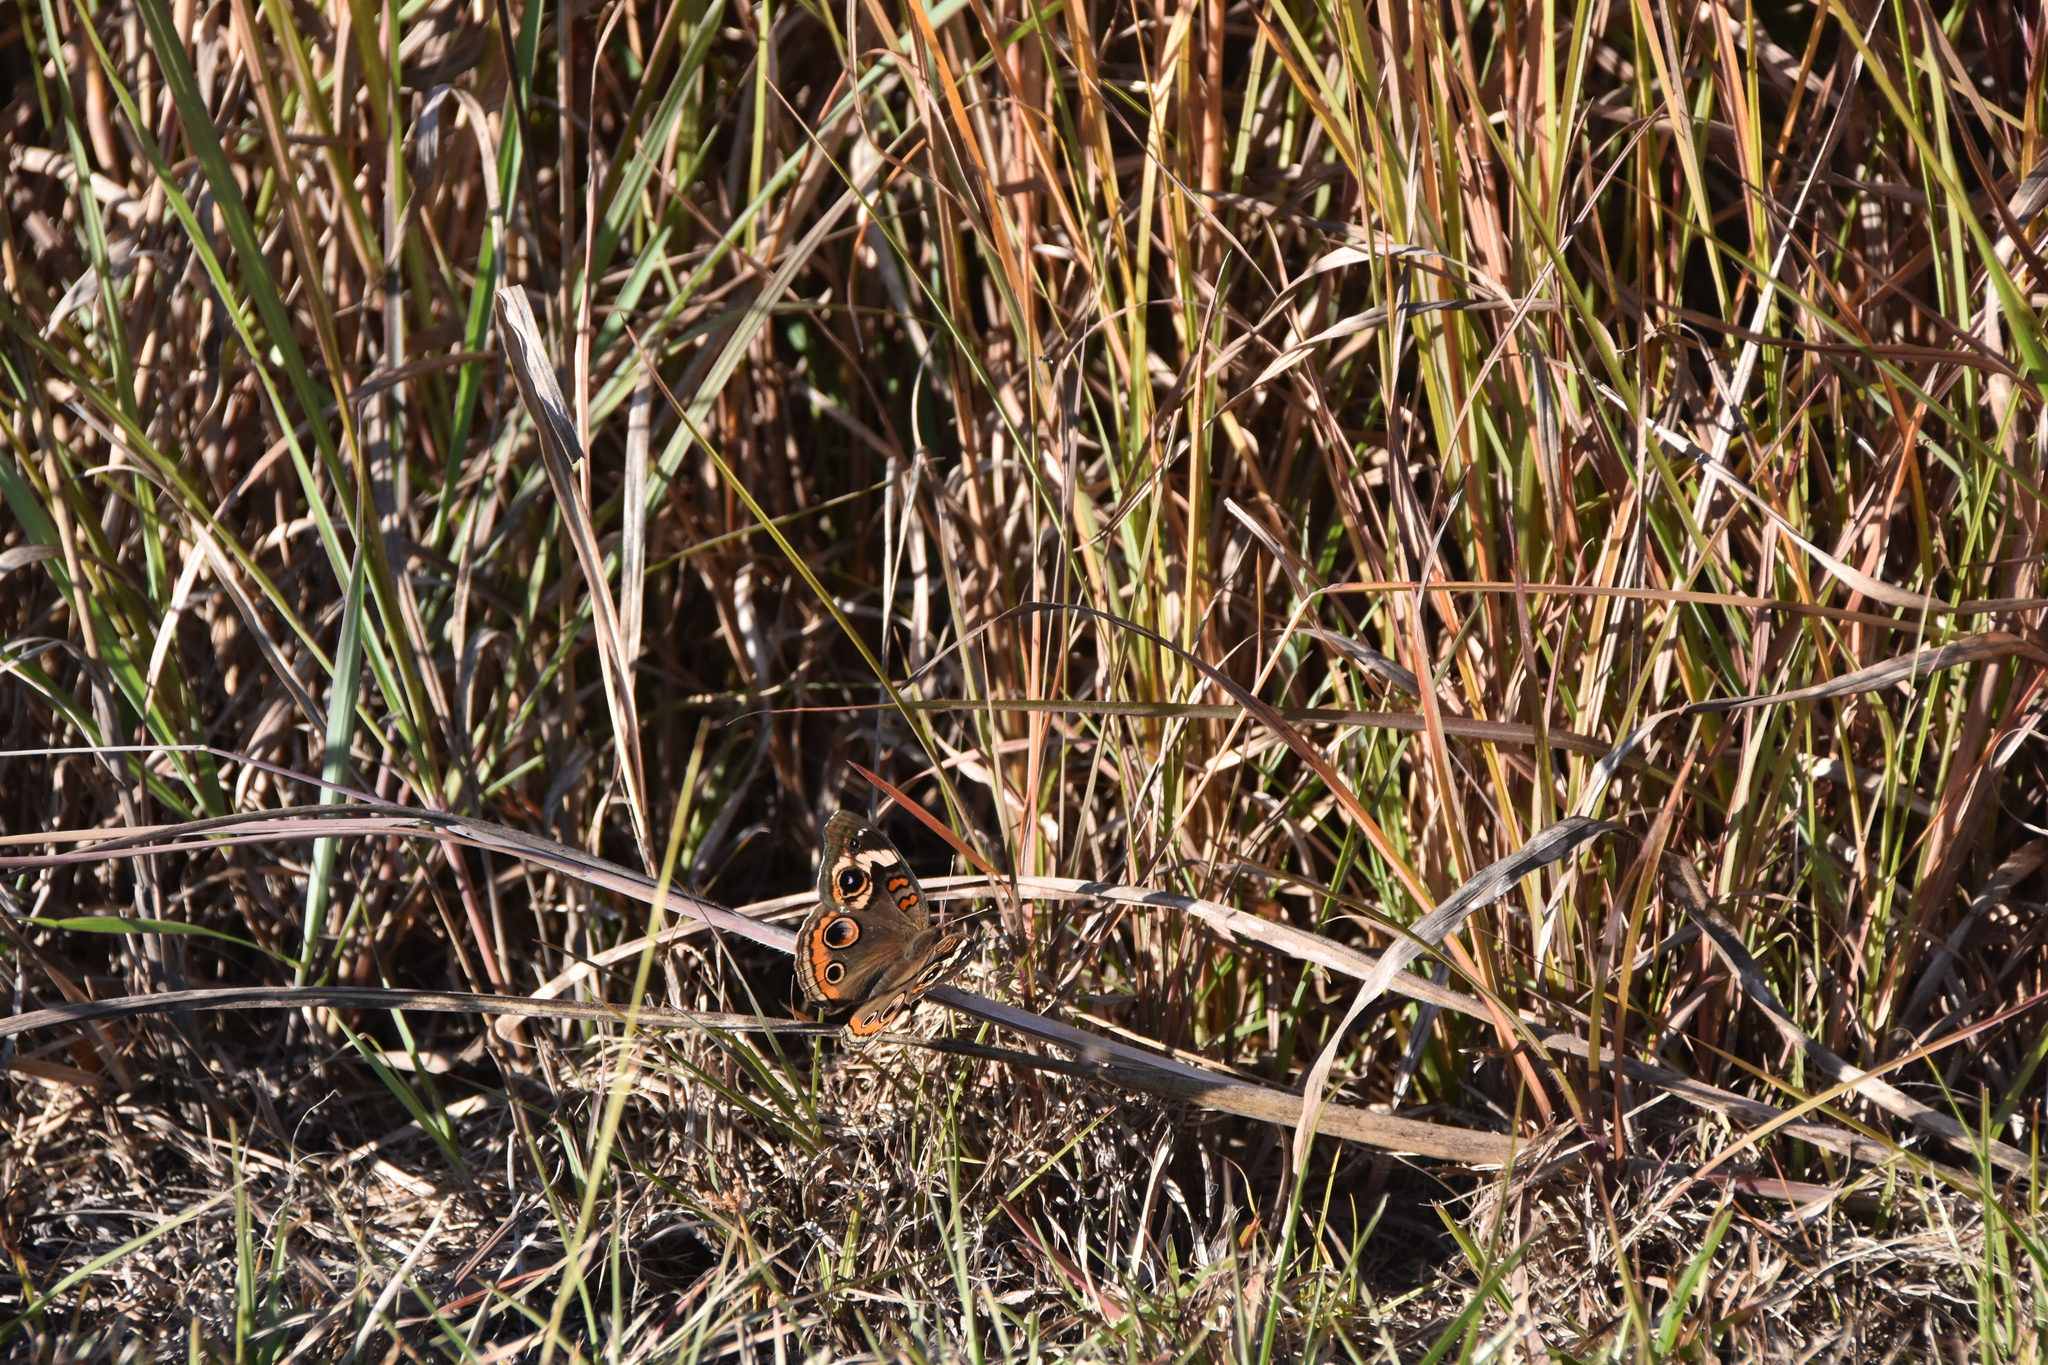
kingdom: Animalia
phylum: Arthropoda
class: Insecta
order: Lepidoptera
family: Nymphalidae
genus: Junonia
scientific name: Junonia coenia
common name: Common buckeye
